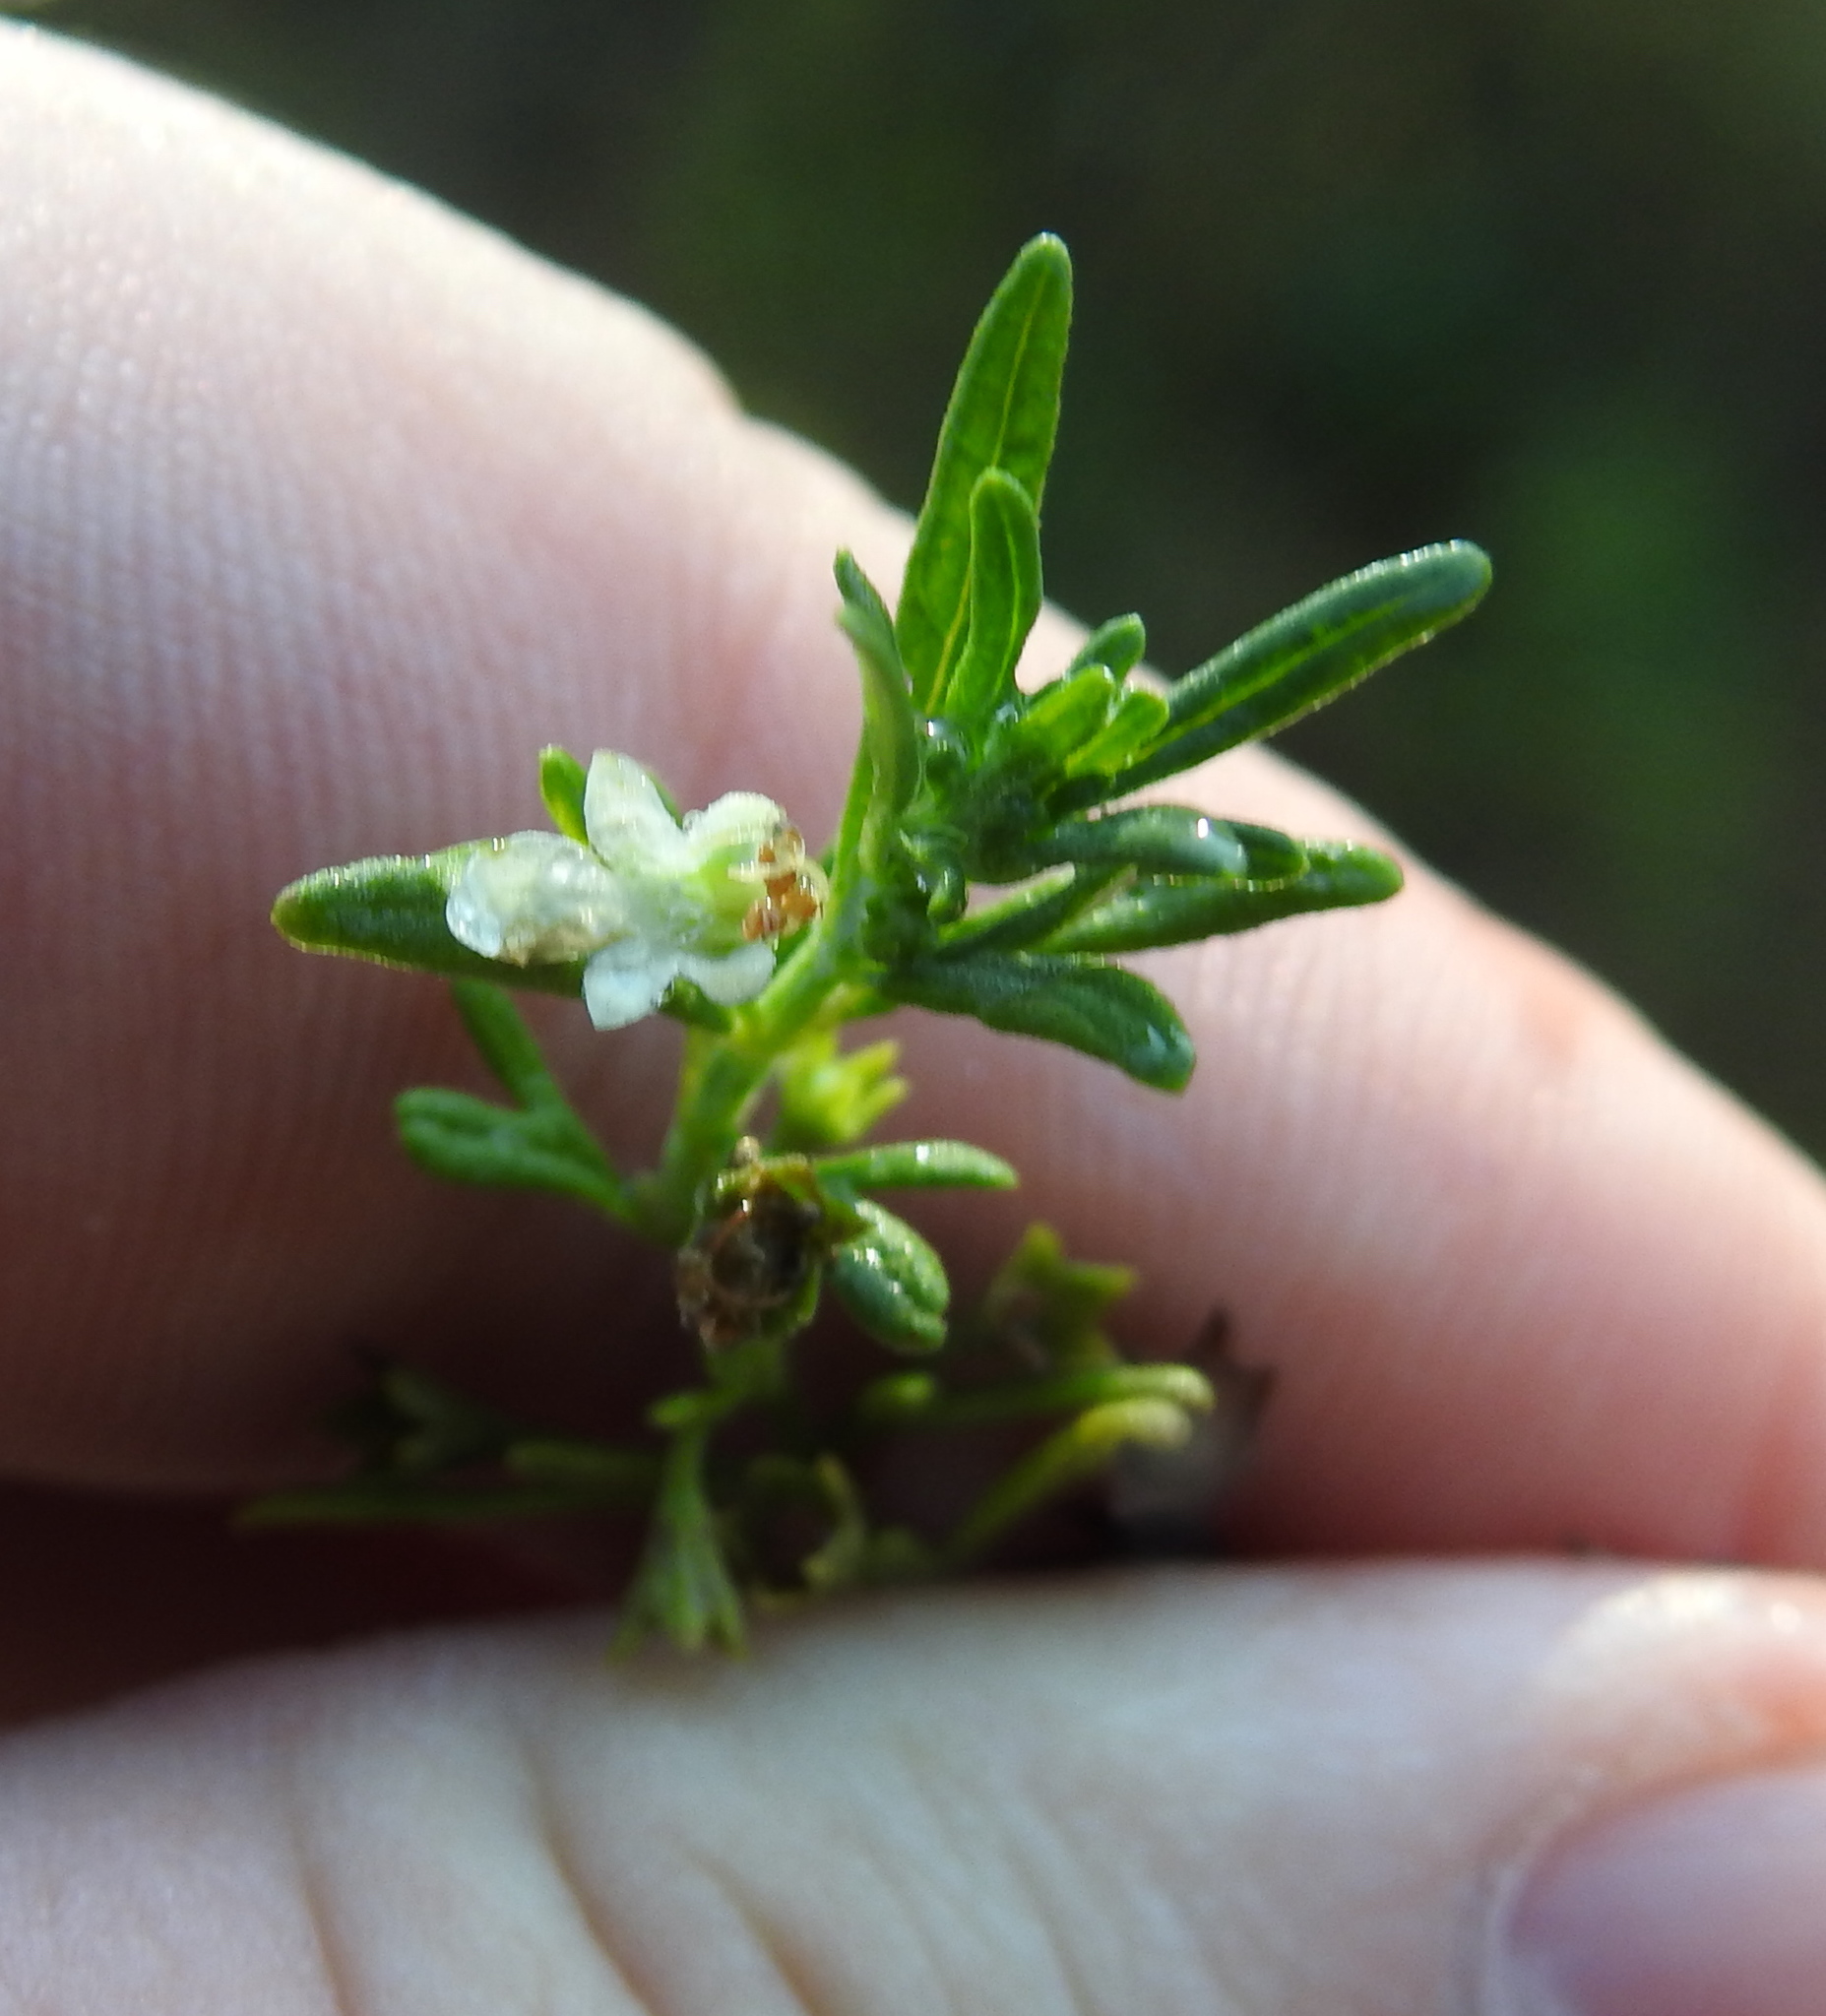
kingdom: Plantae
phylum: Tracheophyta
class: Magnoliopsida
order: Lamiales
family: Lamiaceae
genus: Teucrium
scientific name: Teucrium trifidum
